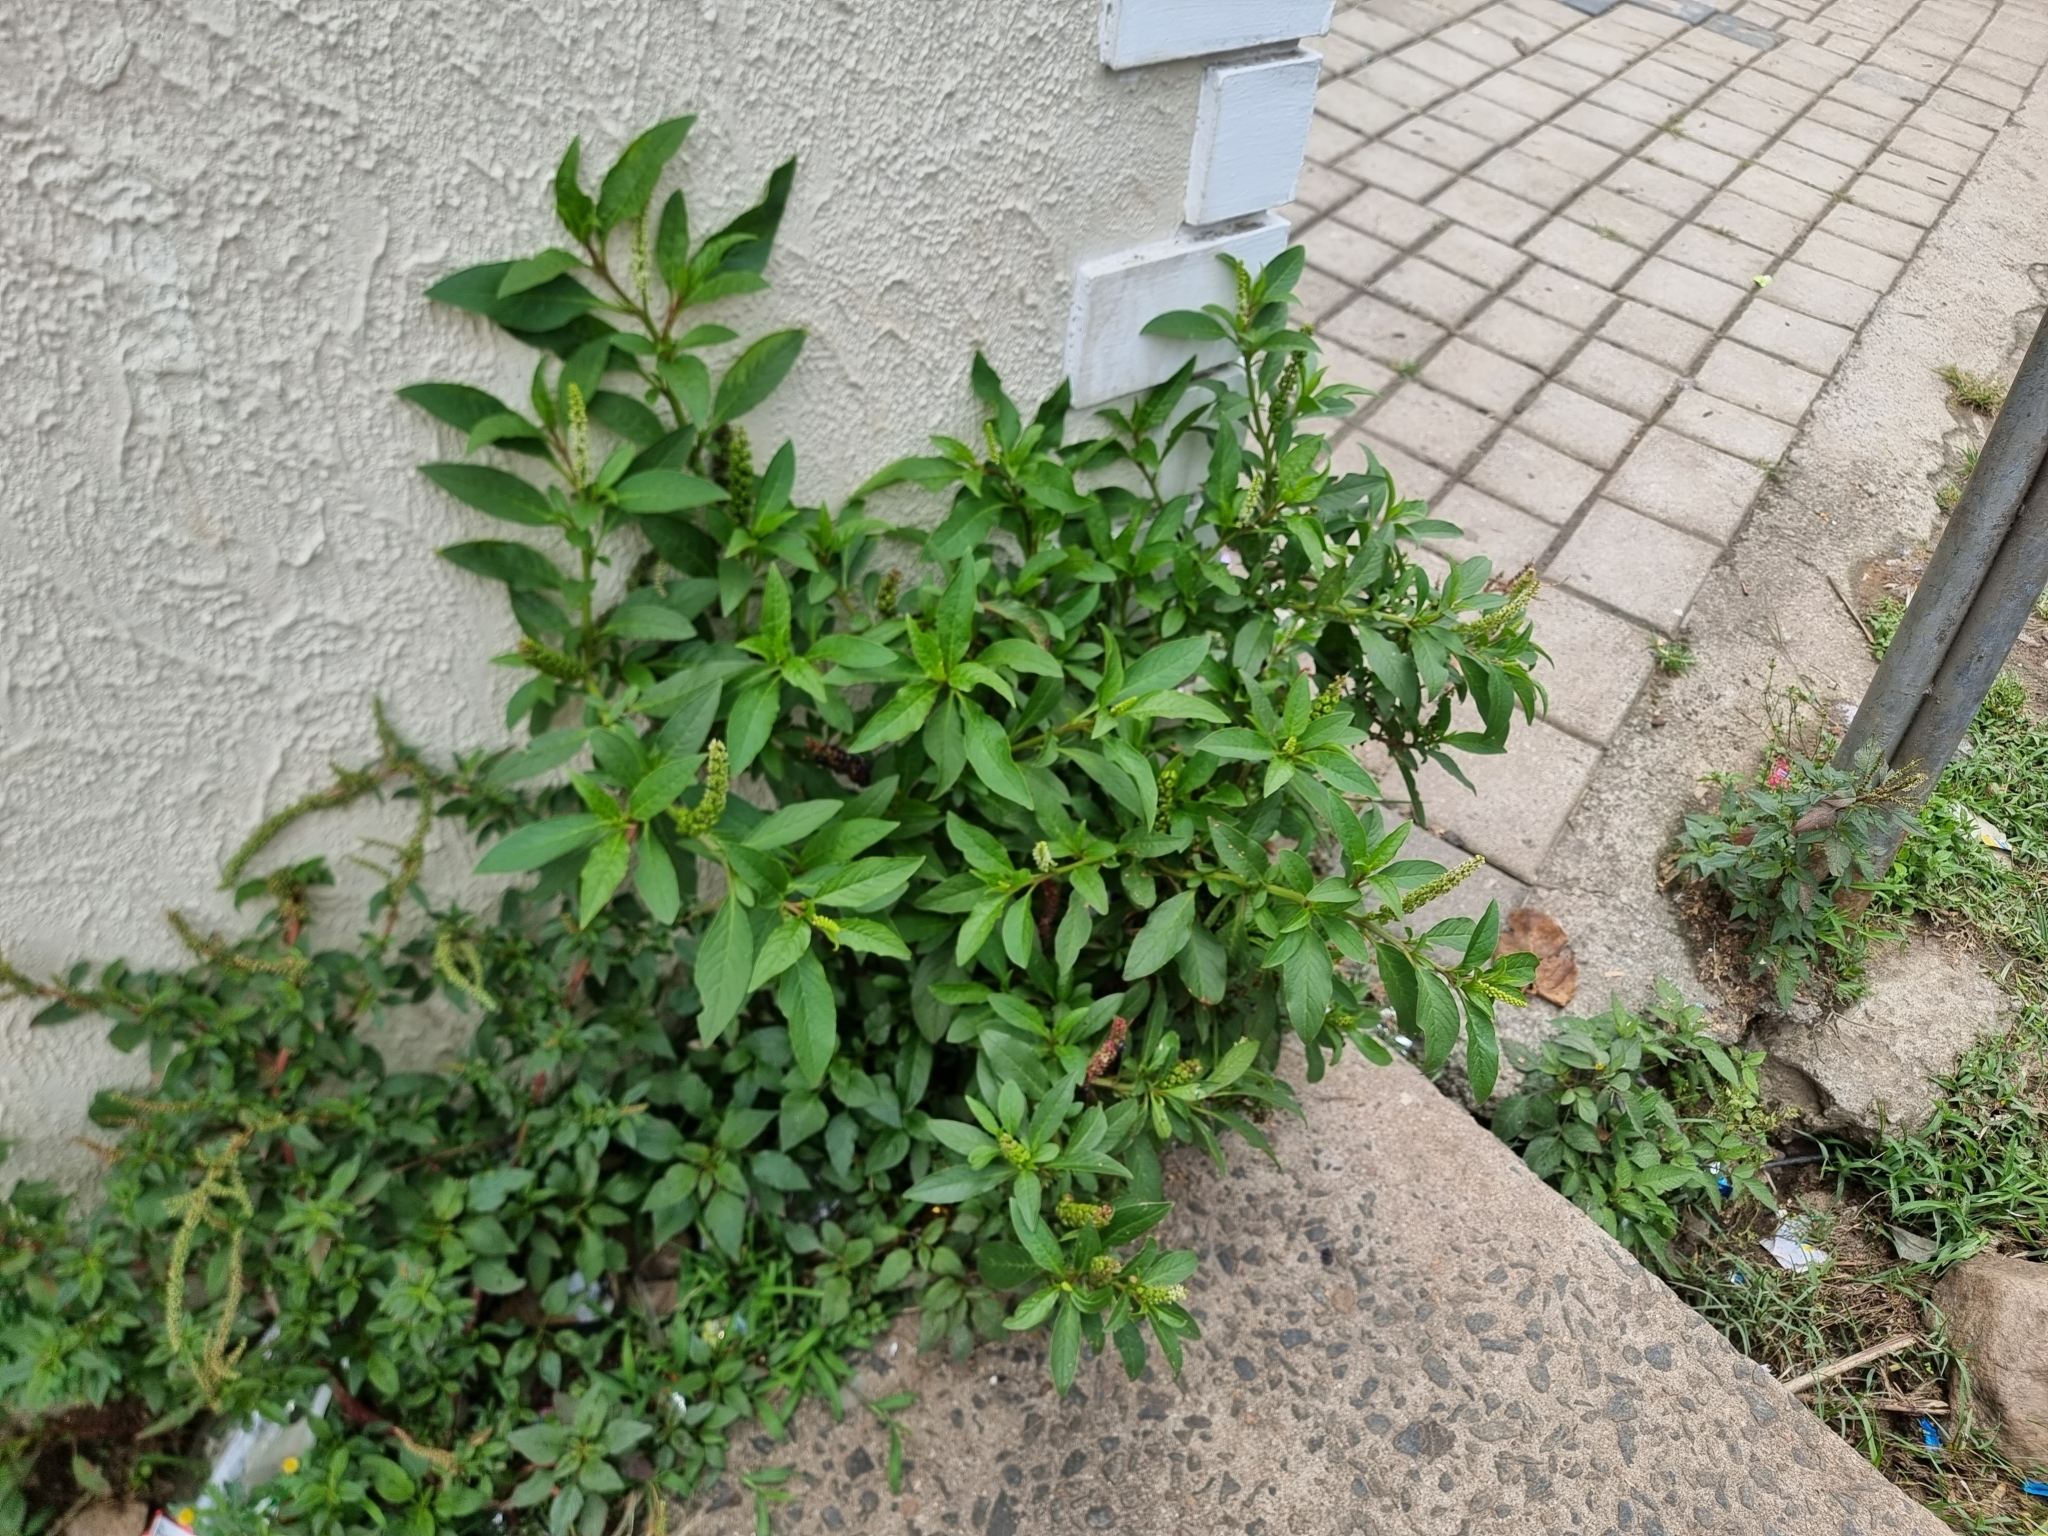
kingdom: Plantae
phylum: Tracheophyta
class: Magnoliopsida
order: Caryophyllales
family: Phytolaccaceae
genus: Phytolacca
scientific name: Phytolacca icosandra
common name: Button pokeweed
